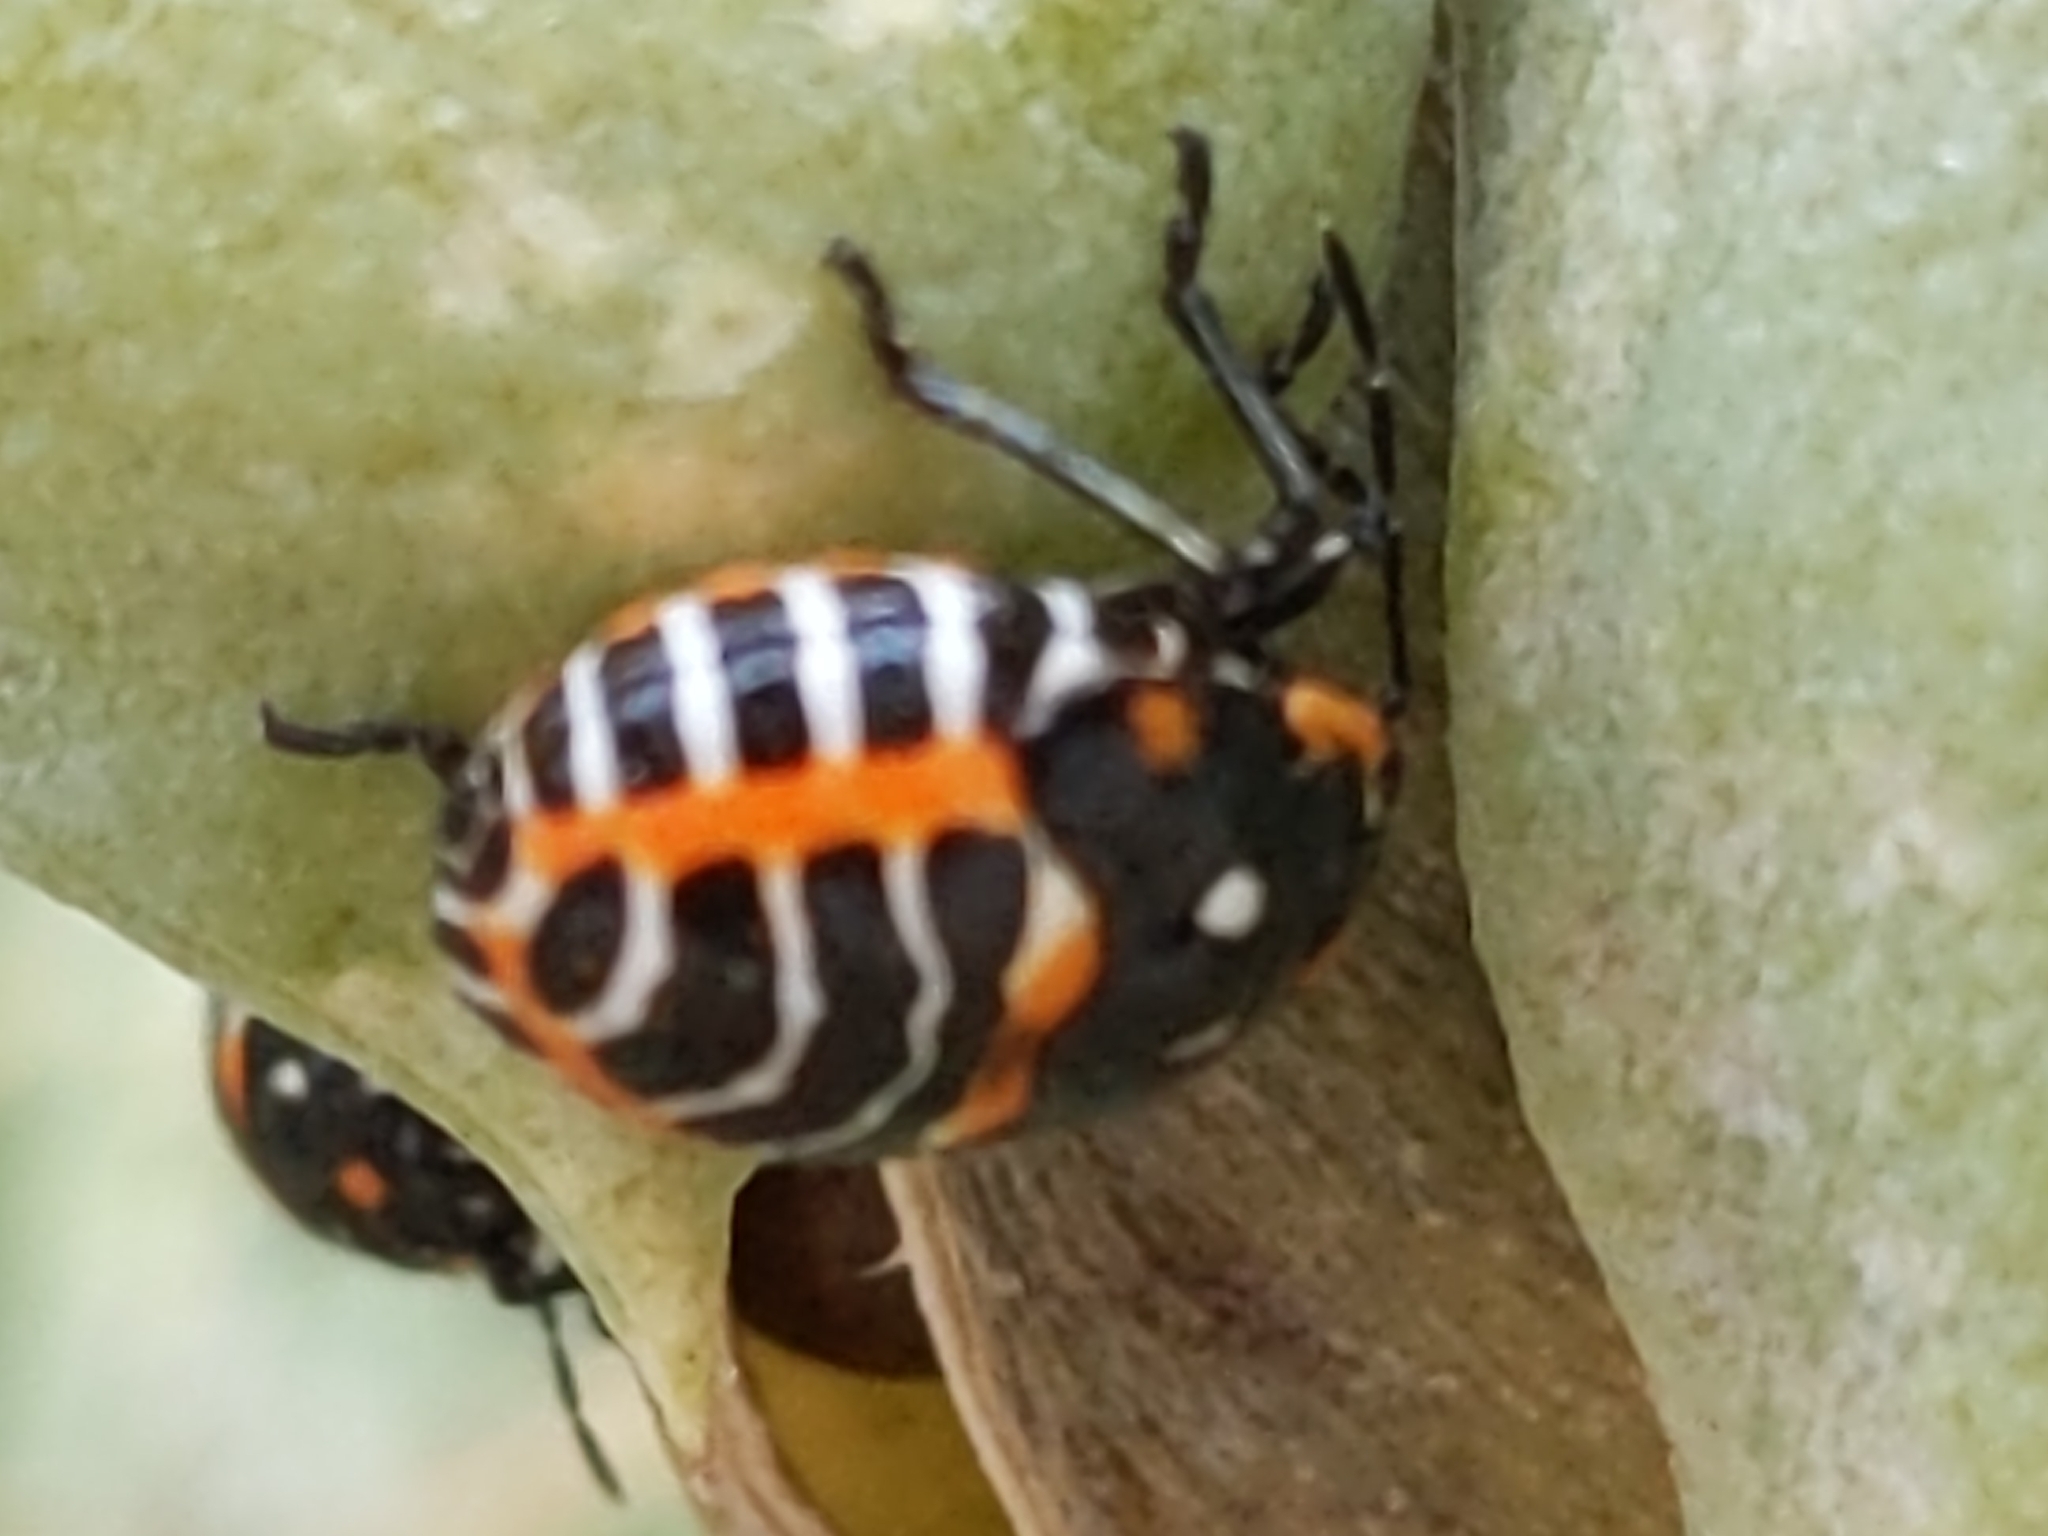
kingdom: Animalia
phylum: Arthropoda
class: Insecta
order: Hemiptera
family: Pentatomidae
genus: Murgantia
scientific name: Murgantia histrionica
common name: Harlequin bug
